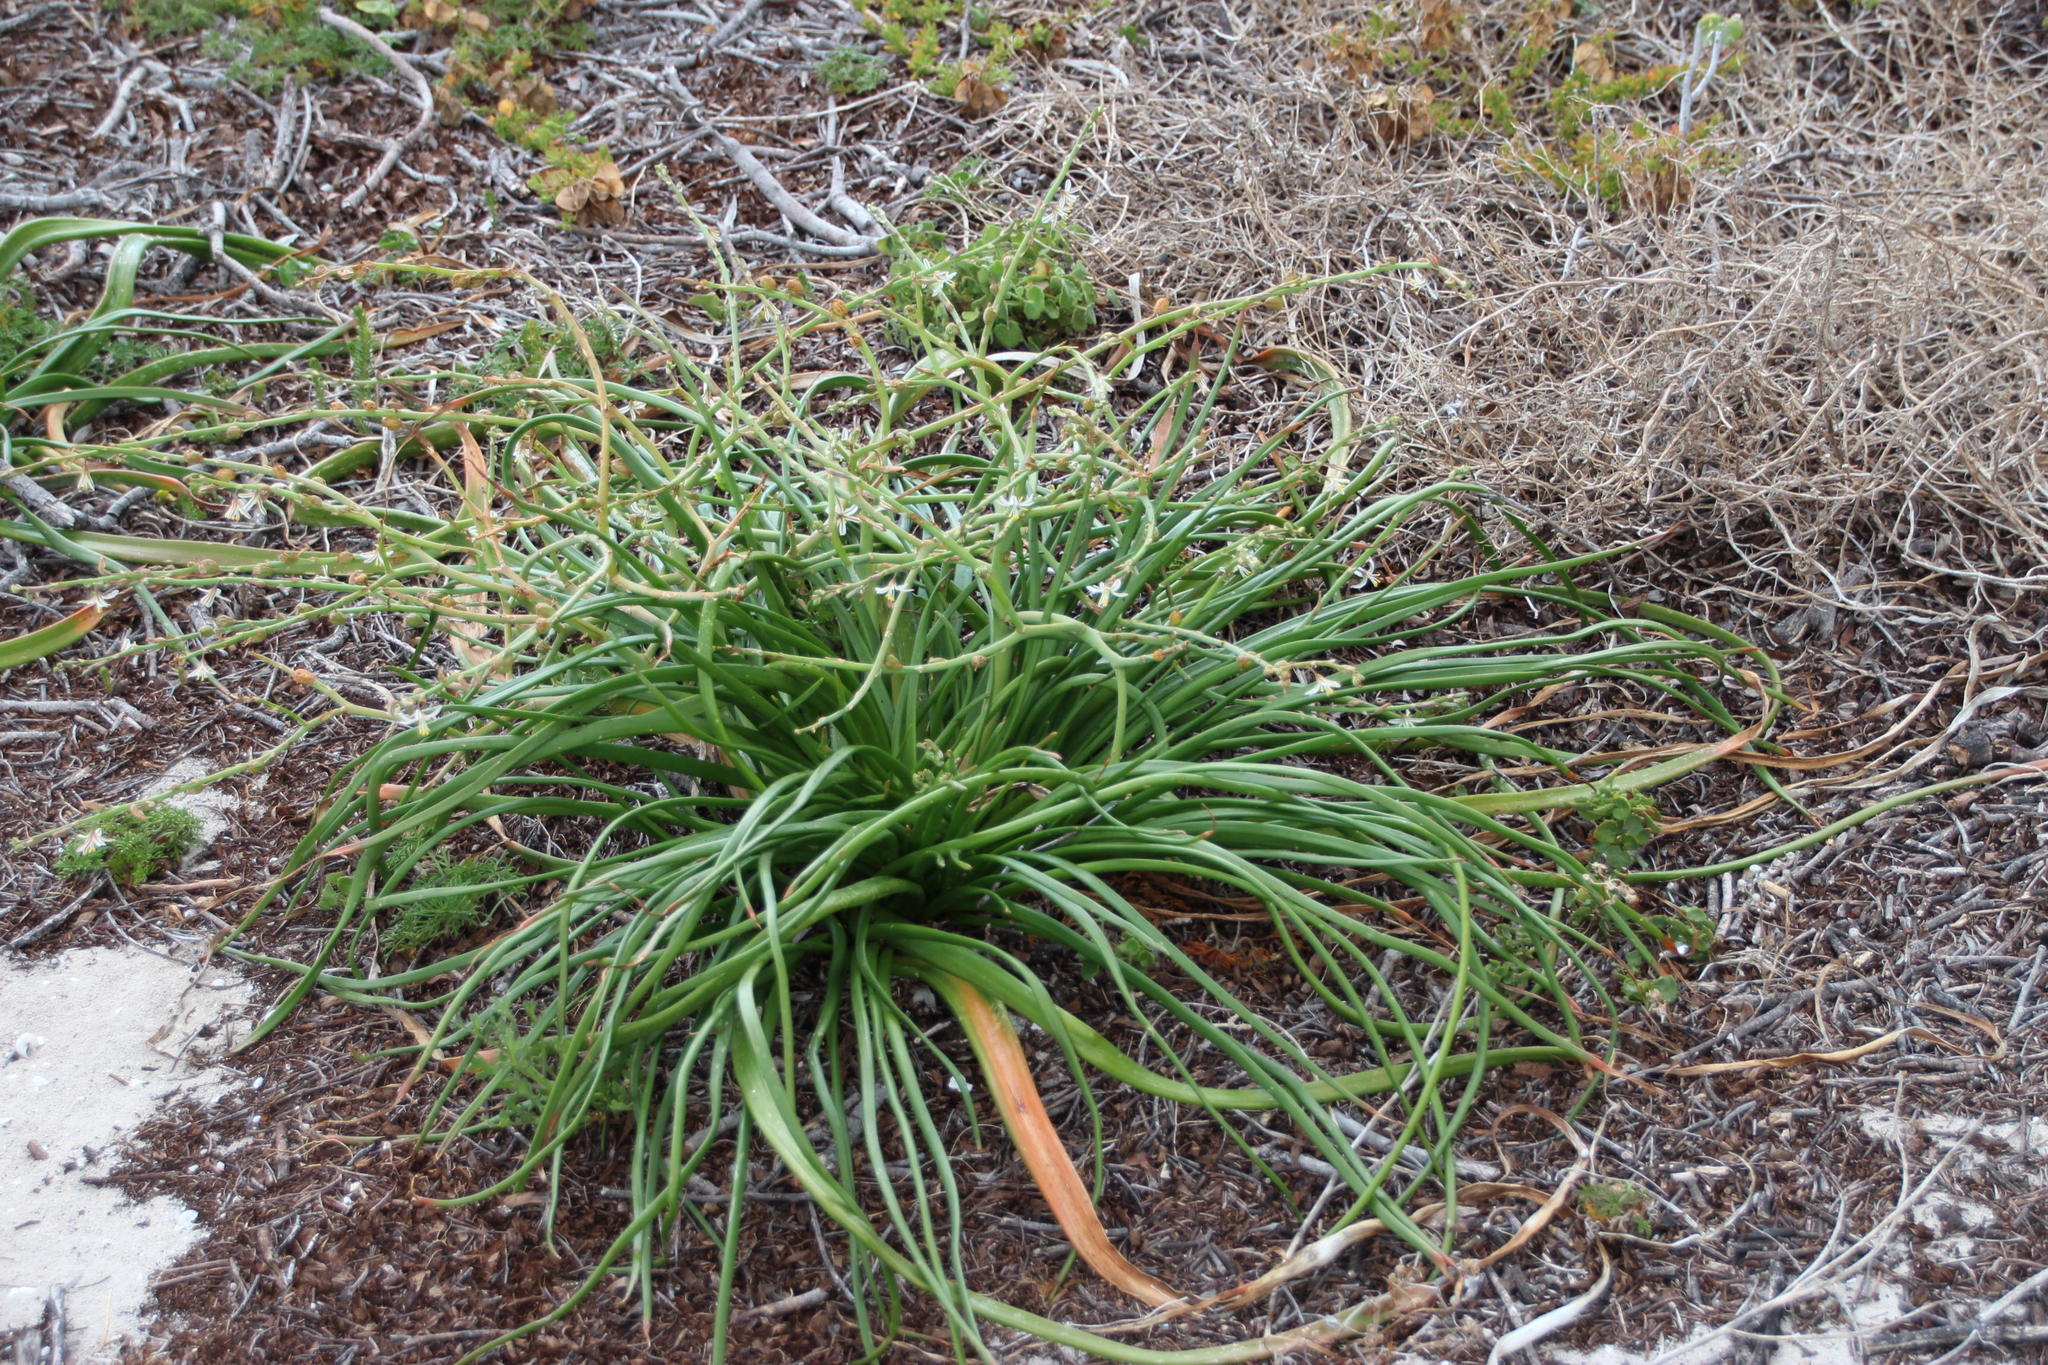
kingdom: Plantae
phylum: Tracheophyta
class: Liliopsida
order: Asparagales
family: Asphodelaceae
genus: Trachyandra
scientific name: Trachyandra divaricata
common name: Dune onionweed
